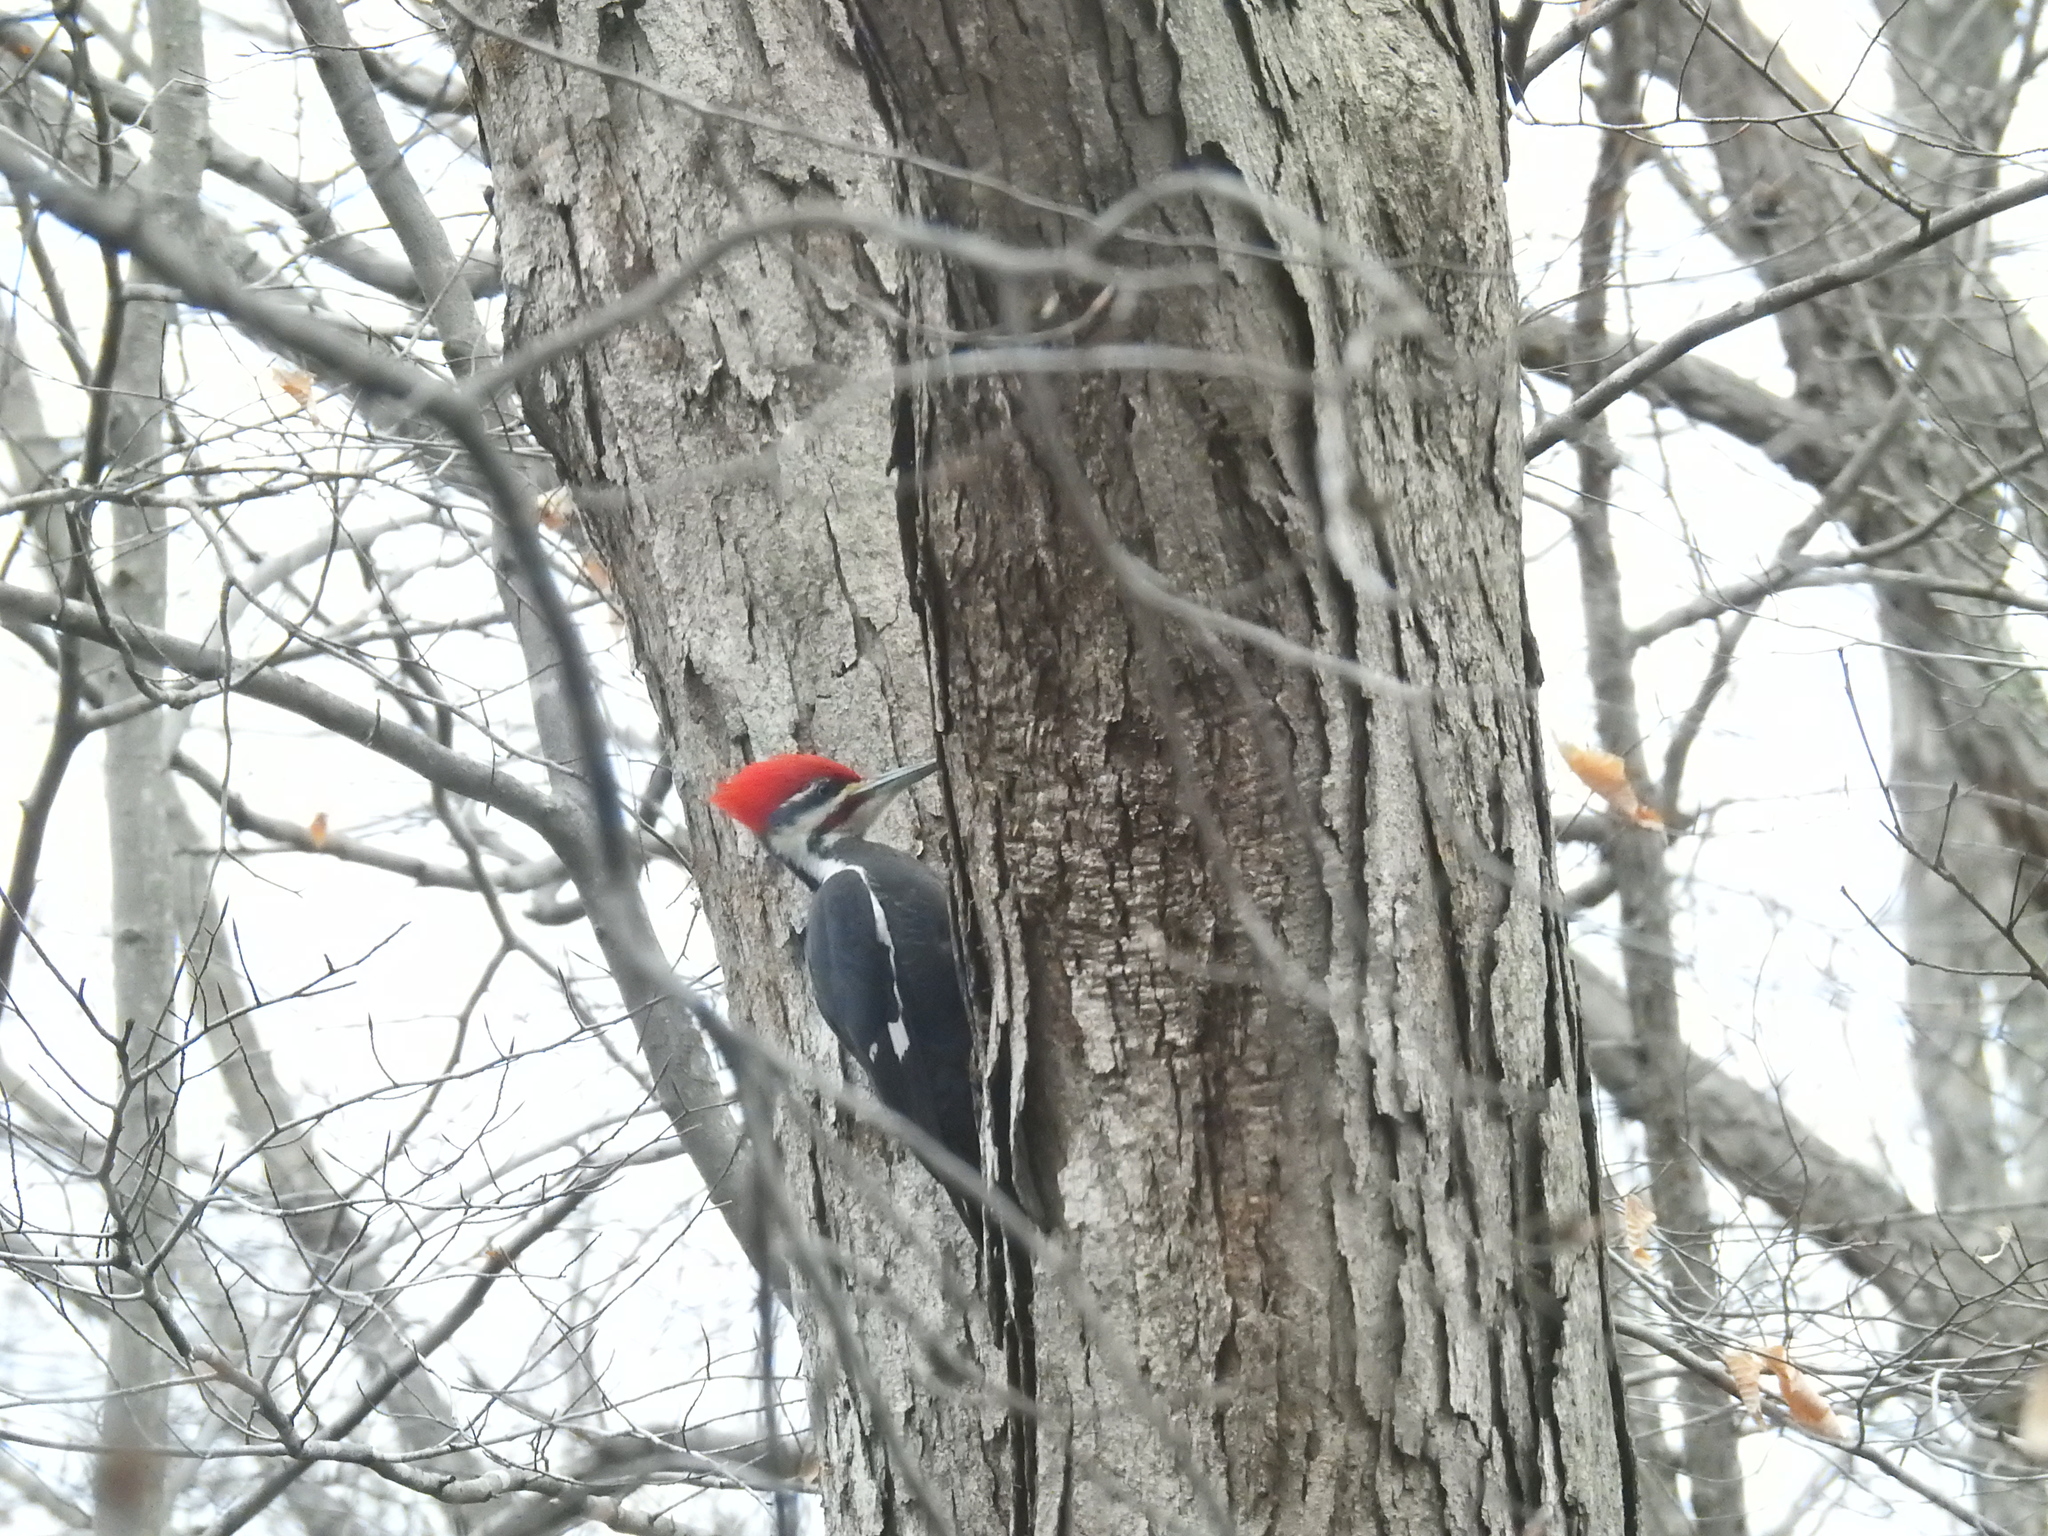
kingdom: Animalia
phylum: Chordata
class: Aves
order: Piciformes
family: Picidae
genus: Dryocopus
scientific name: Dryocopus pileatus
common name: Pileated woodpecker
